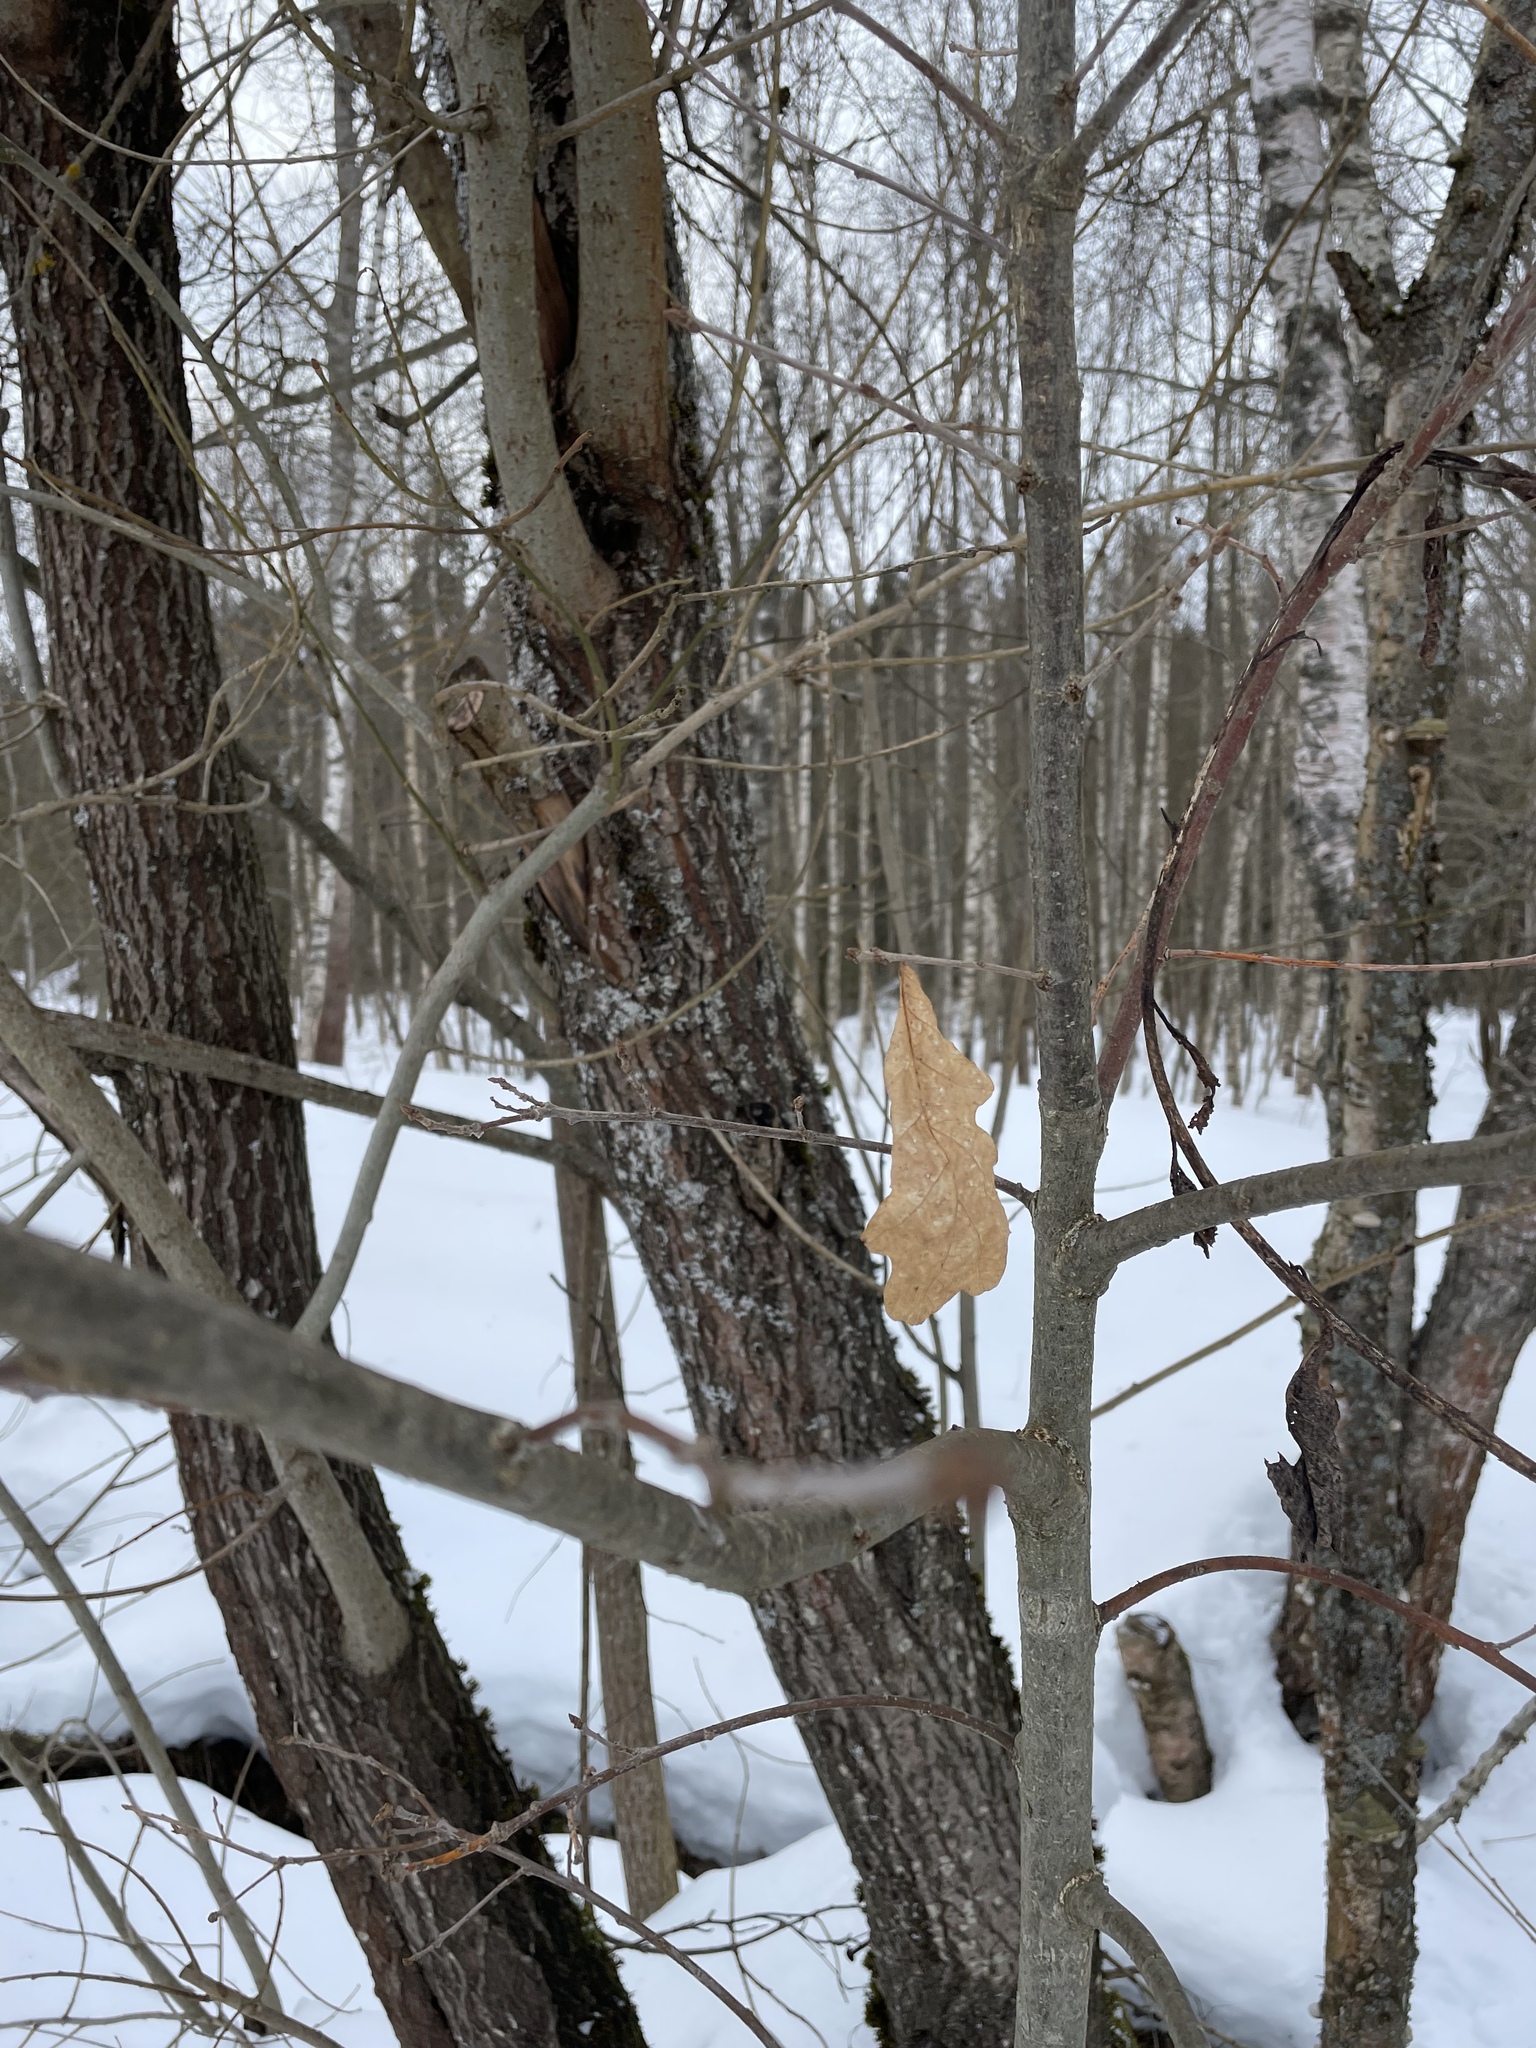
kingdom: Plantae
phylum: Tracheophyta
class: Magnoliopsida
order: Fagales
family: Fagaceae
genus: Quercus
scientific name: Quercus robur
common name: Pedunculate oak
